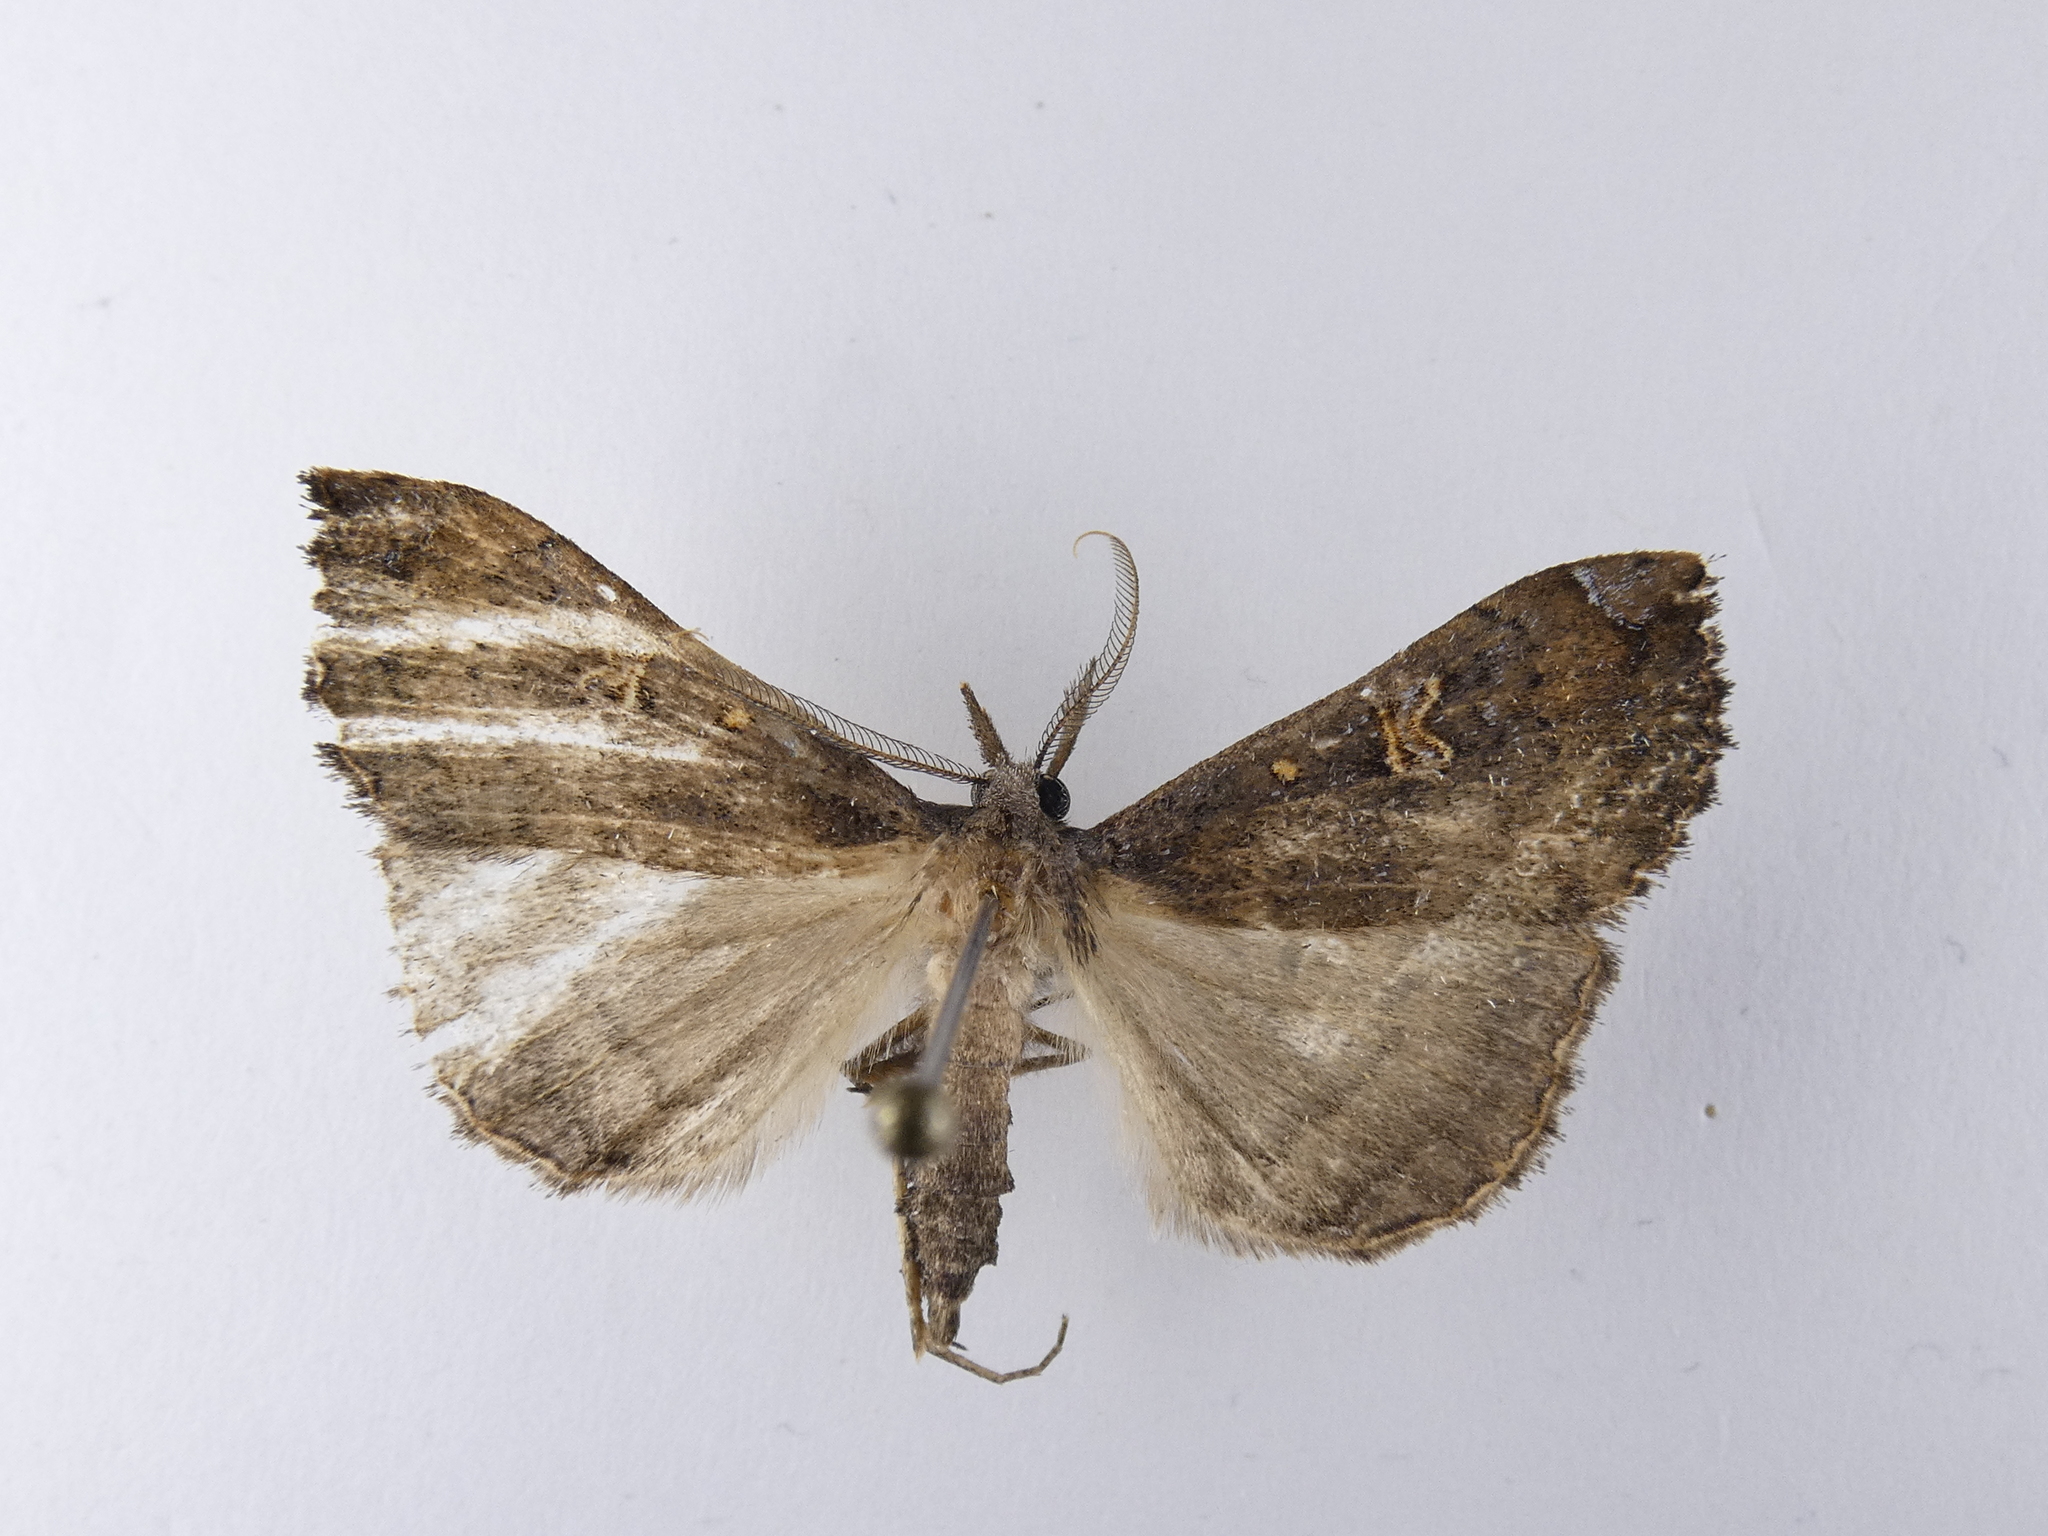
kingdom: Animalia
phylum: Arthropoda
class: Insecta
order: Lepidoptera
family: Erebidae
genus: Rhapsa
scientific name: Rhapsa scotosialis
